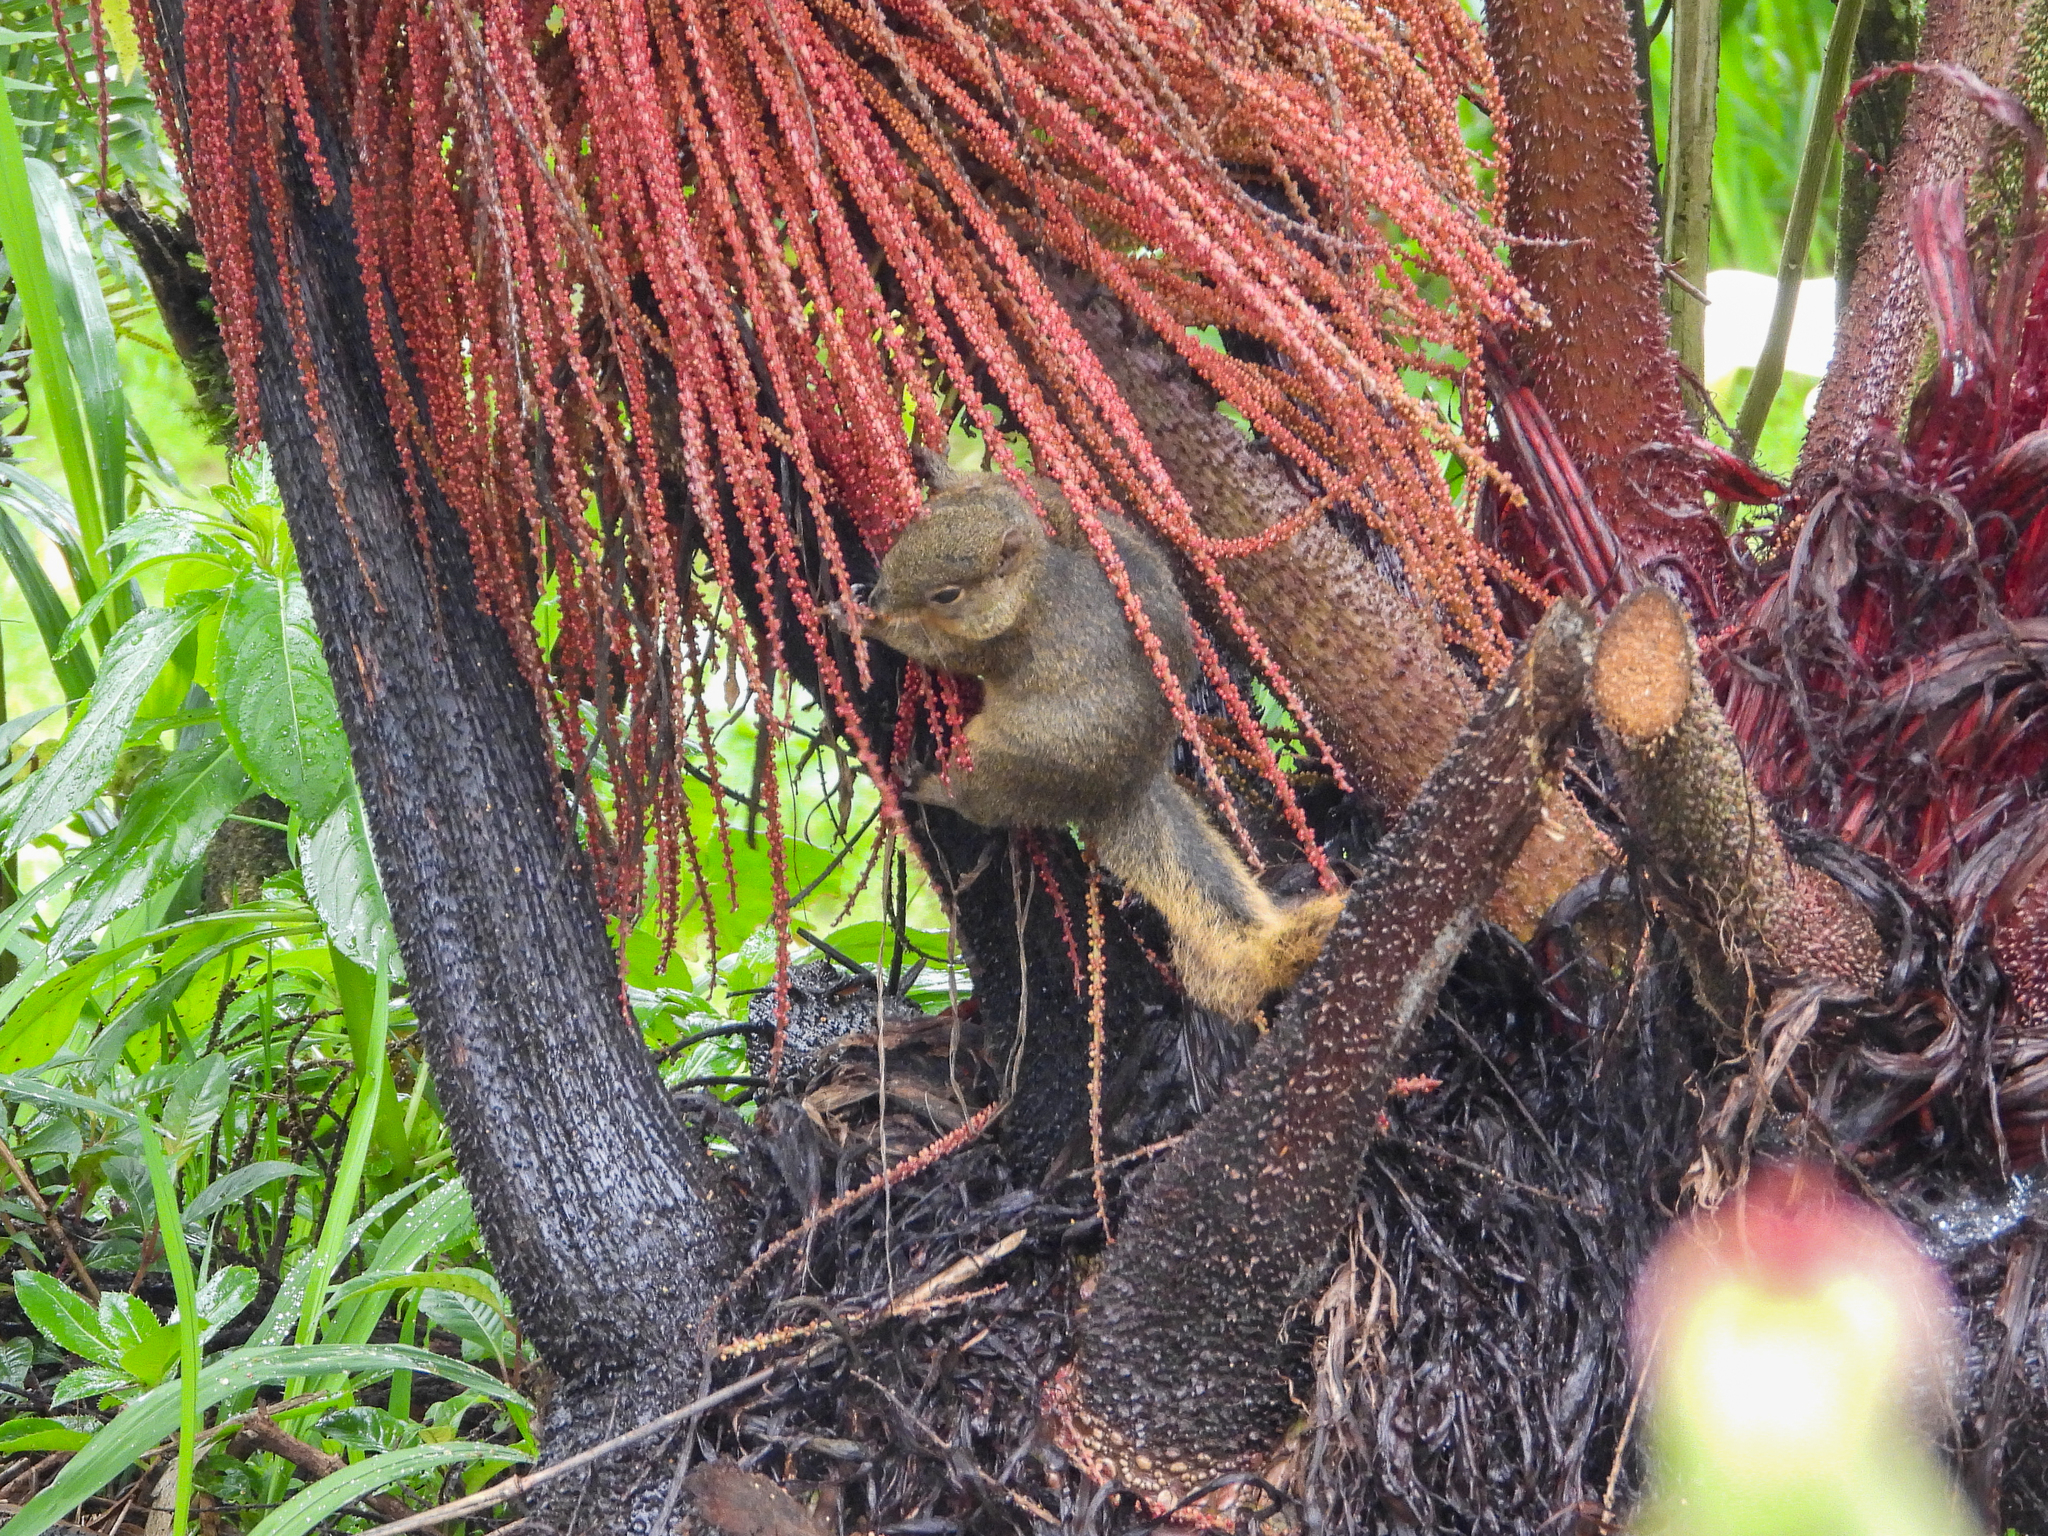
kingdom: Animalia
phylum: Chordata
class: Mammalia
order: Rodentia
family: Sciuridae
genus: Sciurus
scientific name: Sciurus granatensis
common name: Red-tailed squirrel
